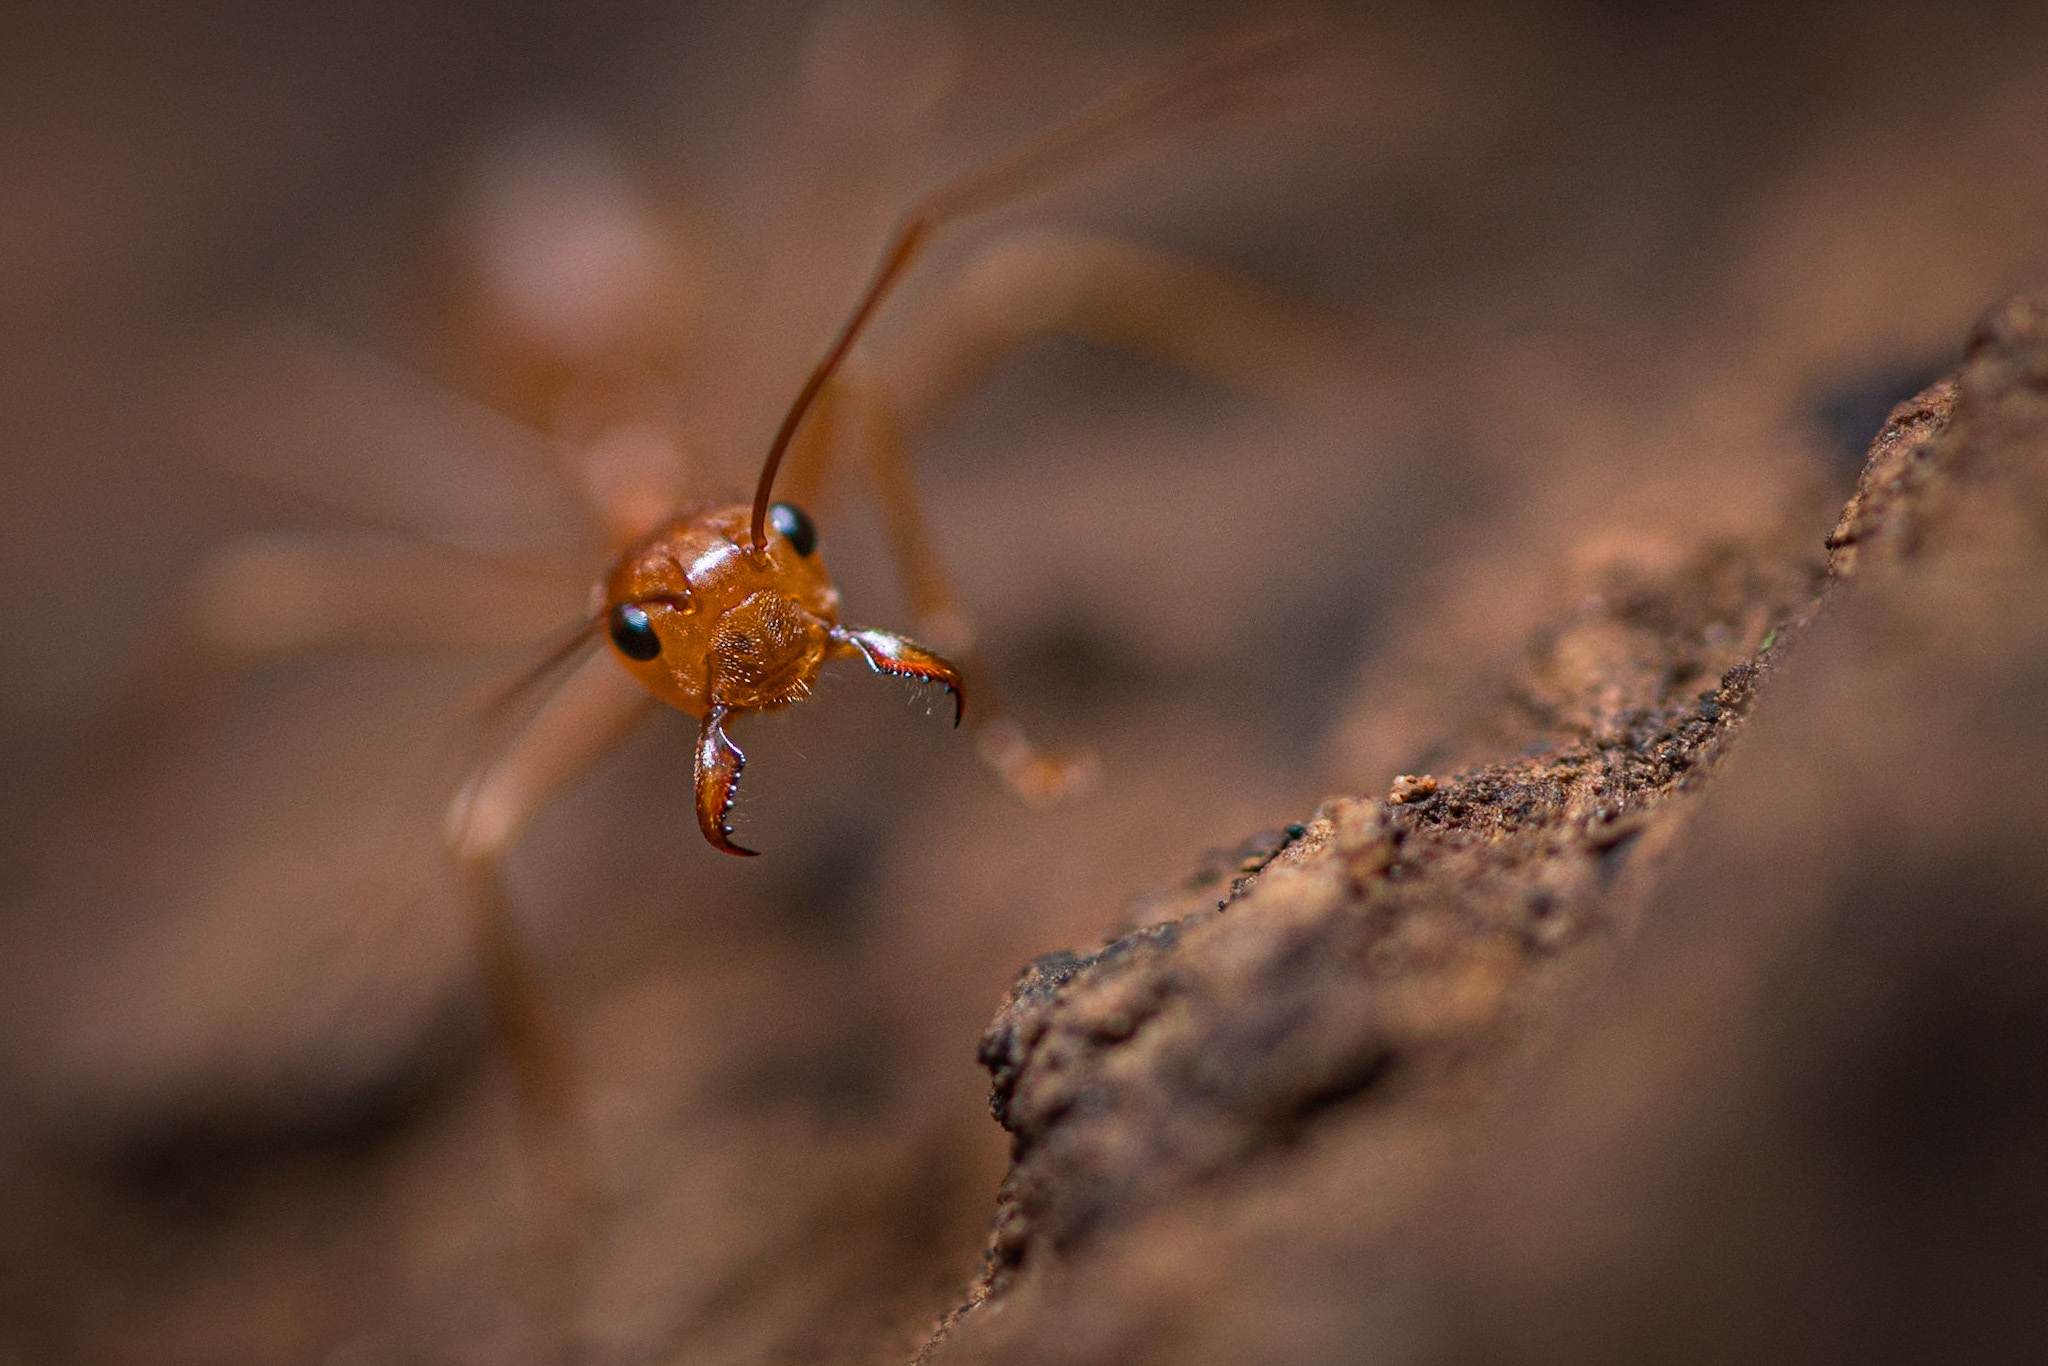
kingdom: Animalia
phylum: Arthropoda
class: Insecta
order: Hymenoptera
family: Formicidae
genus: Oecophylla
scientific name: Oecophylla smaragdina
